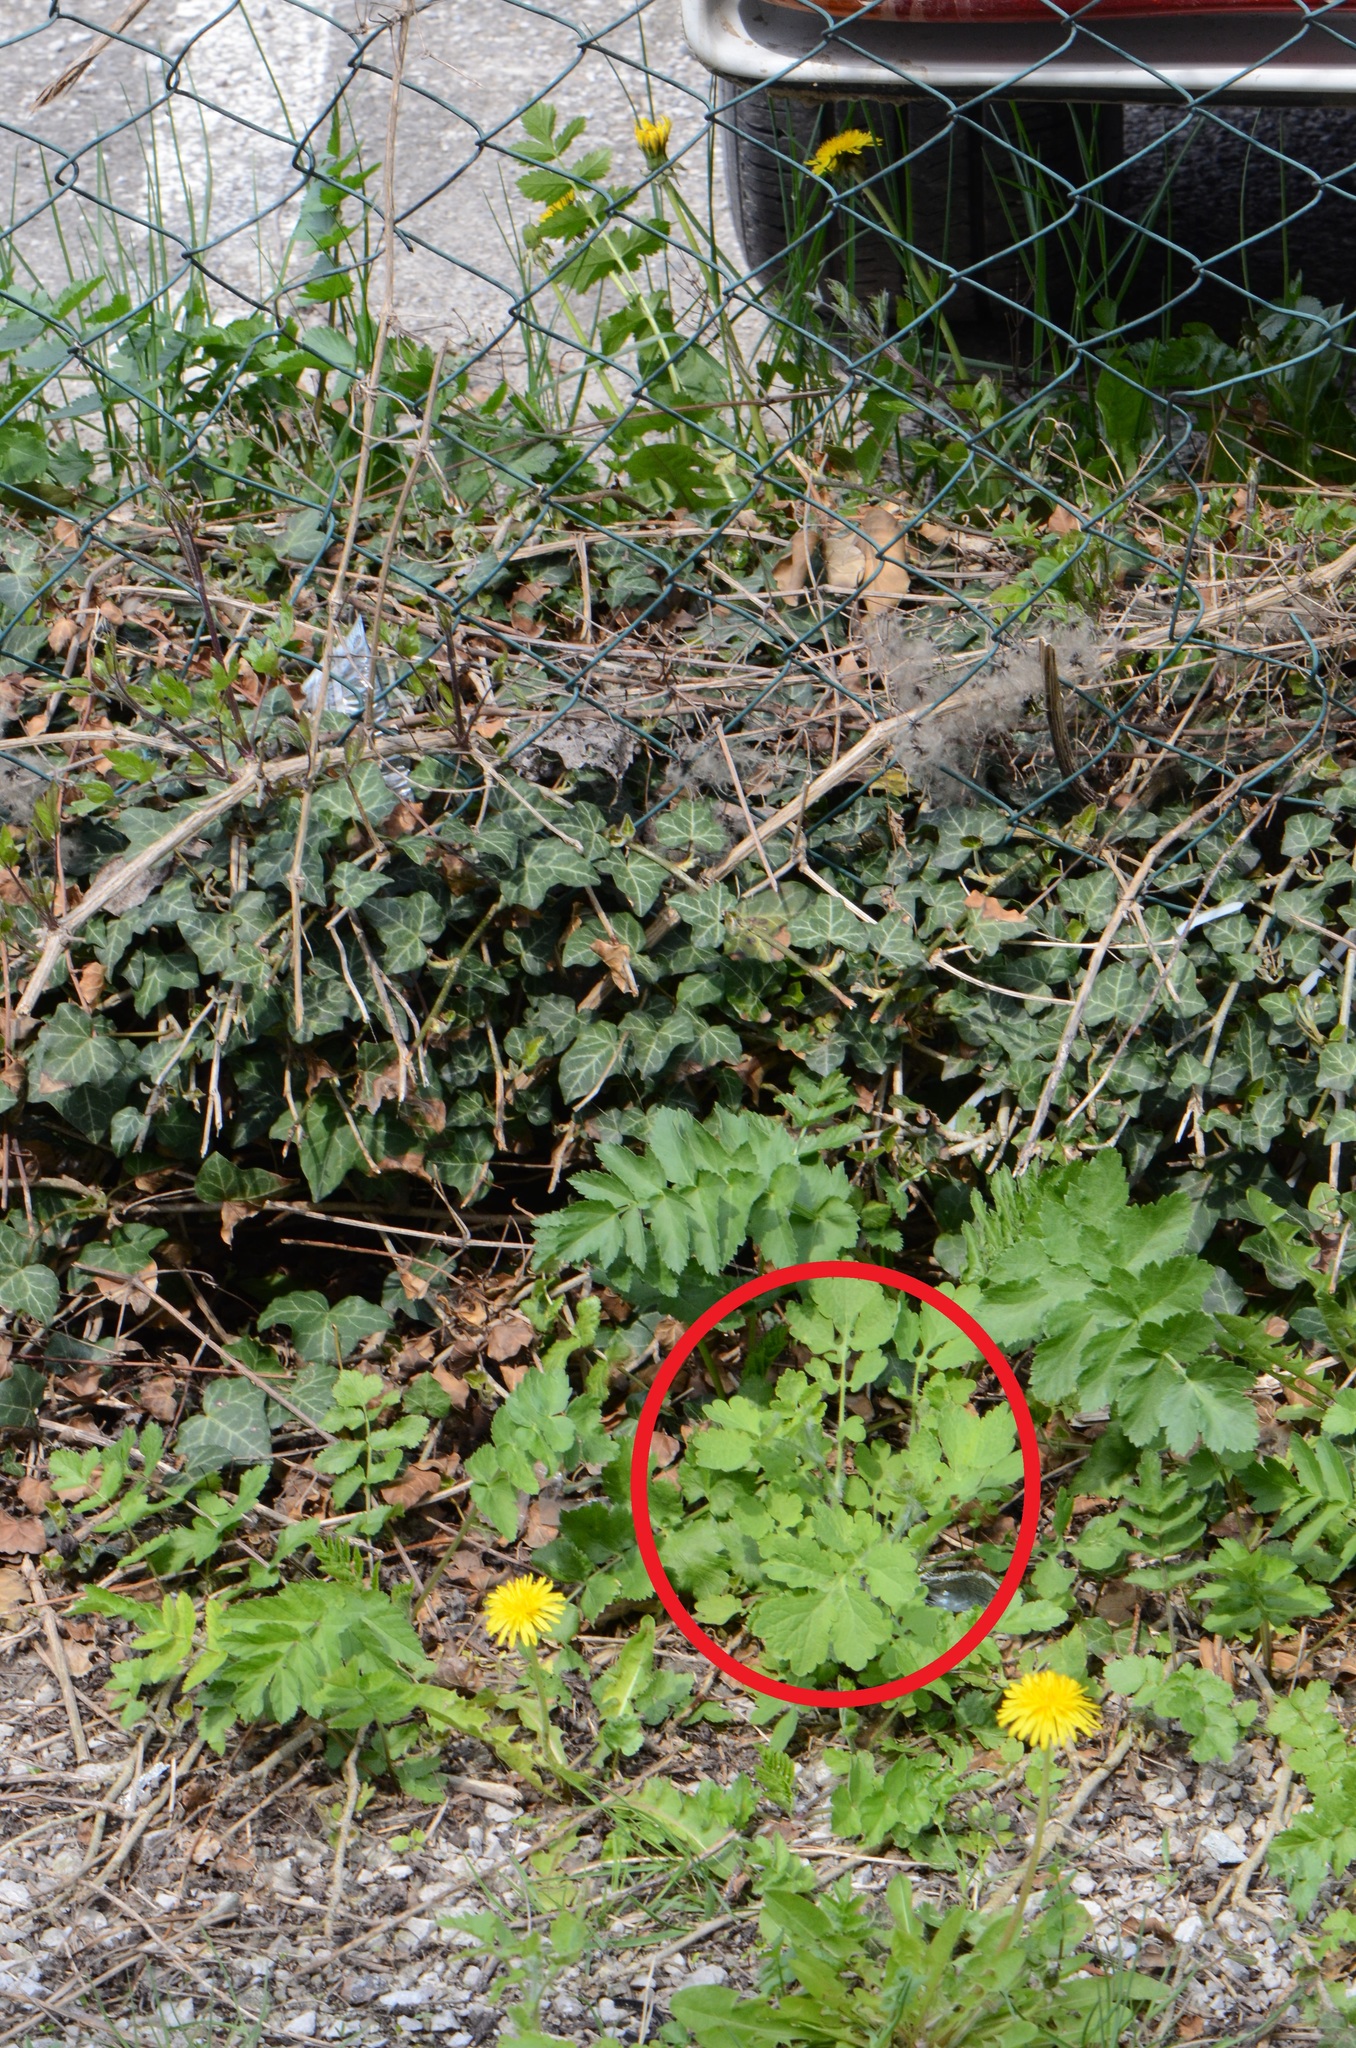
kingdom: Plantae
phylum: Tracheophyta
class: Magnoliopsida
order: Ranunculales
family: Papaveraceae
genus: Chelidonium
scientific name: Chelidonium majus
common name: Greater celandine
